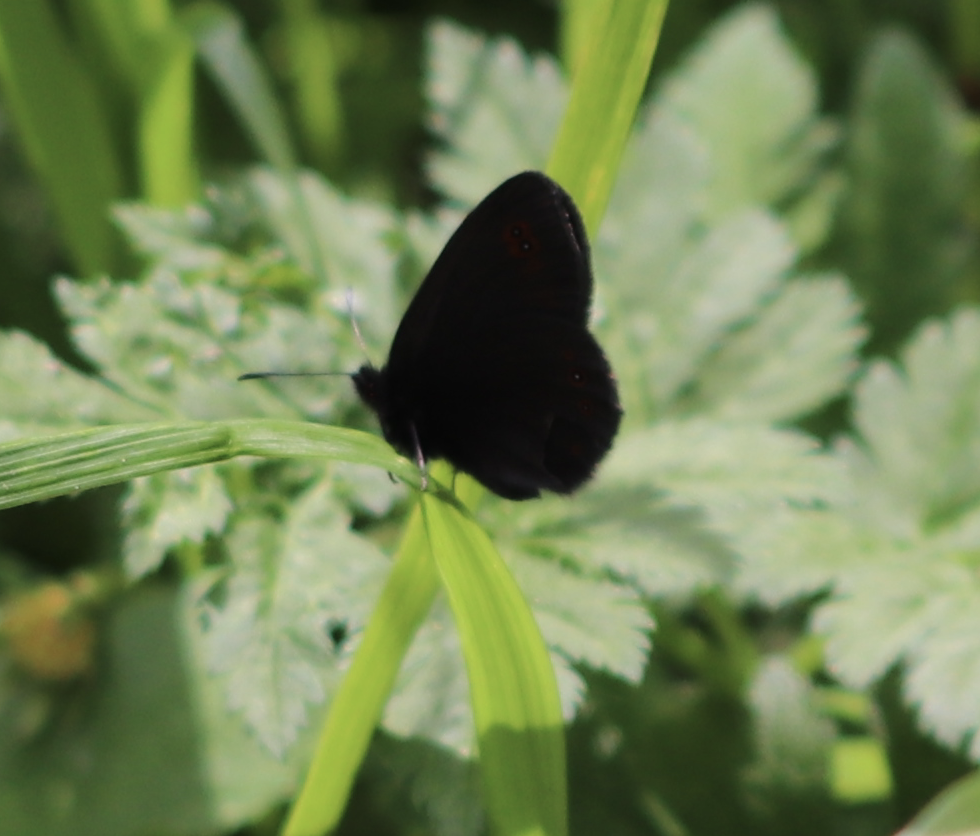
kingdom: Animalia
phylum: Arthropoda
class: Insecta
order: Lepidoptera
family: Nymphalidae
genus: Erebia
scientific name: Erebia oeme
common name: Bright-eyed ringlet
